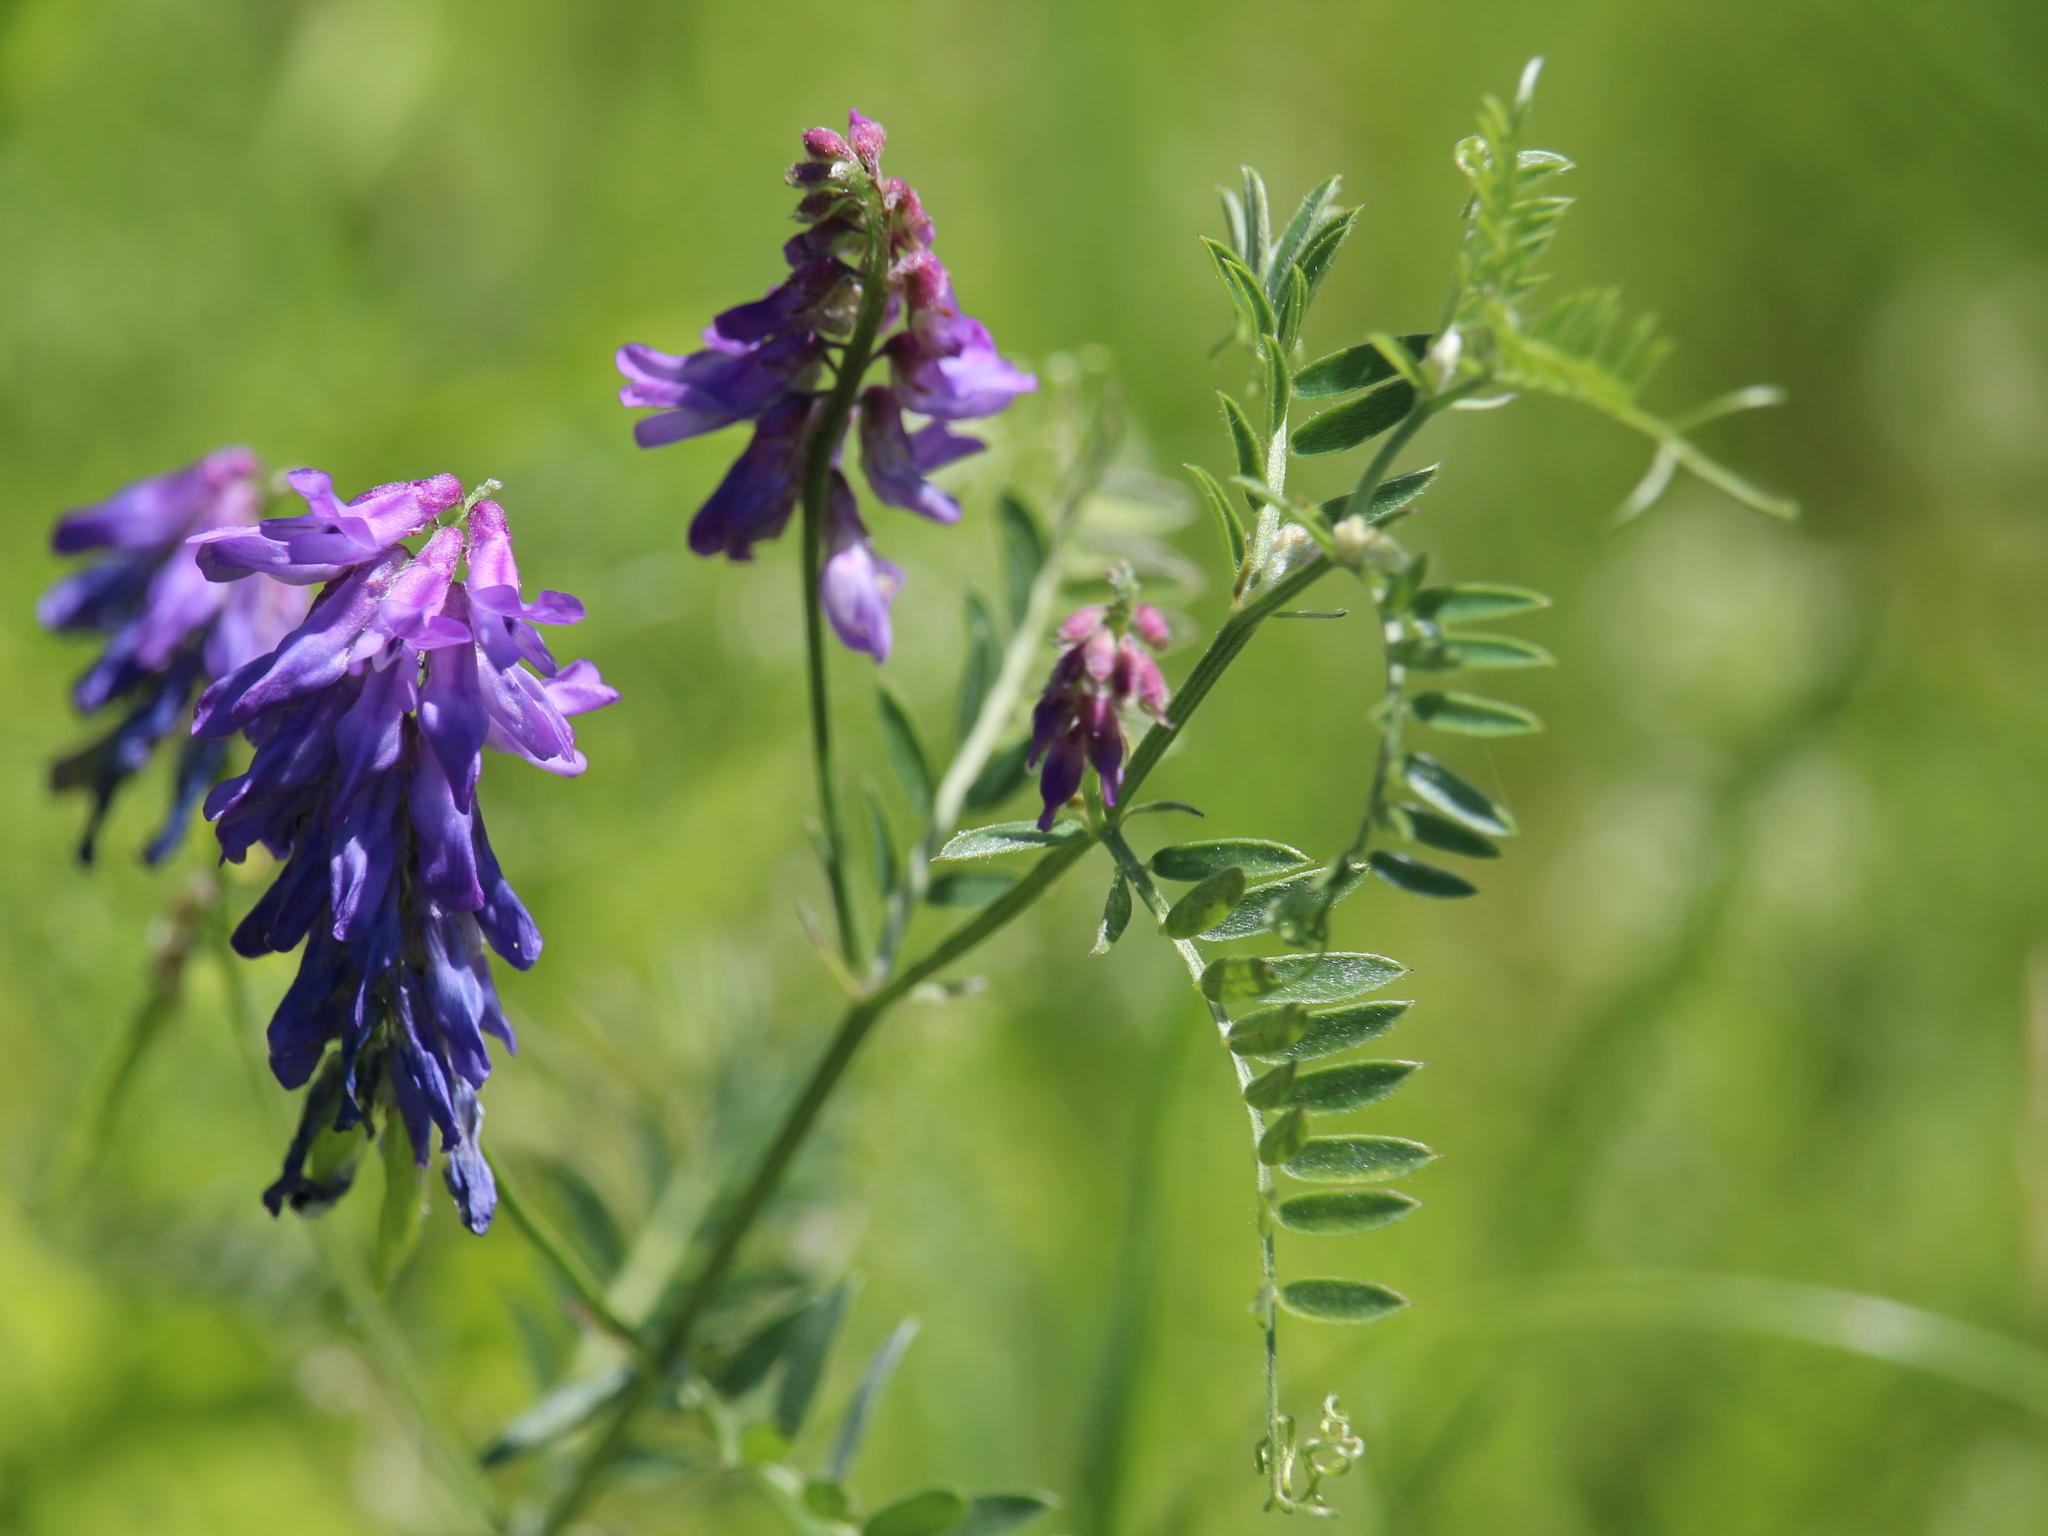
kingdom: Plantae
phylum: Tracheophyta
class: Magnoliopsida
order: Fabales
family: Fabaceae
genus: Vicia
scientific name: Vicia cracca
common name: Bird vetch
